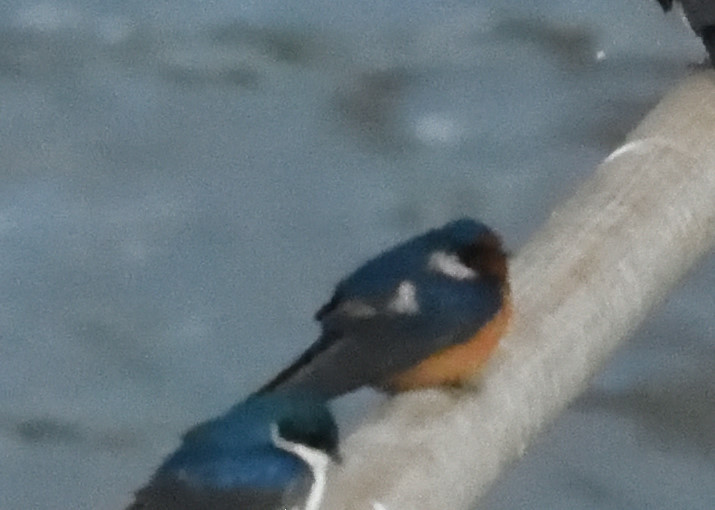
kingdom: Animalia
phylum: Chordata
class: Aves
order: Passeriformes
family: Hirundinidae
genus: Hirundo
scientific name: Hirundo rustica
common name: Barn swallow
